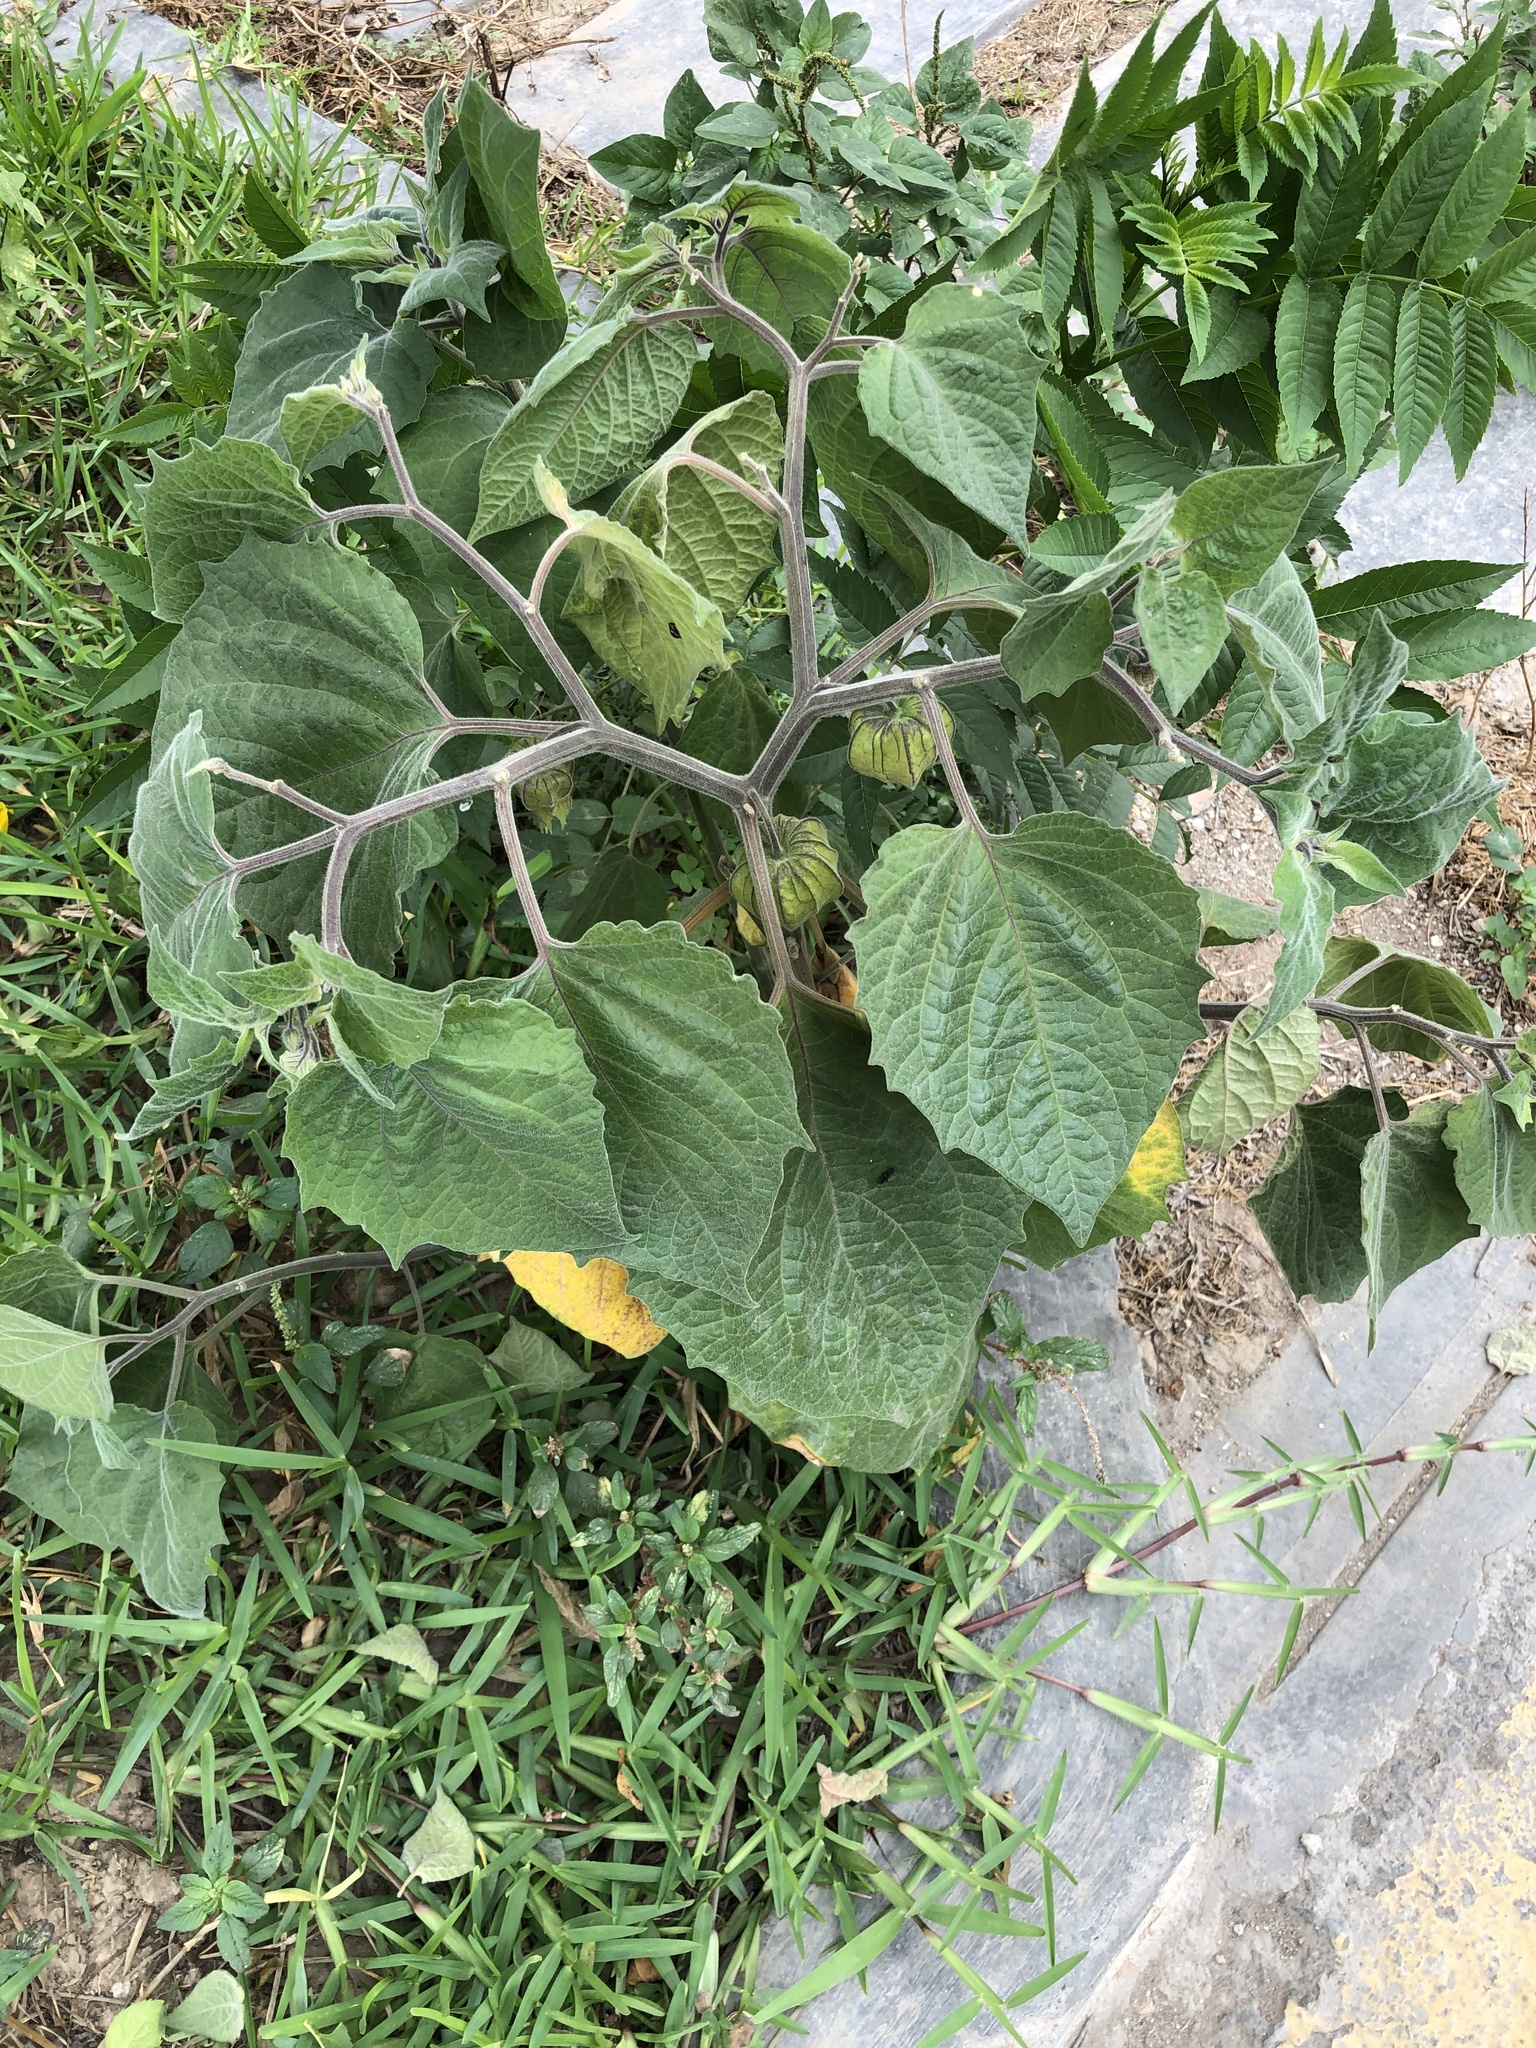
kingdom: Plantae
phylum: Tracheophyta
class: Magnoliopsida
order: Solanales
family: Solanaceae
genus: Physalis
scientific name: Physalis peruviana
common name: Cape-gooseberry
